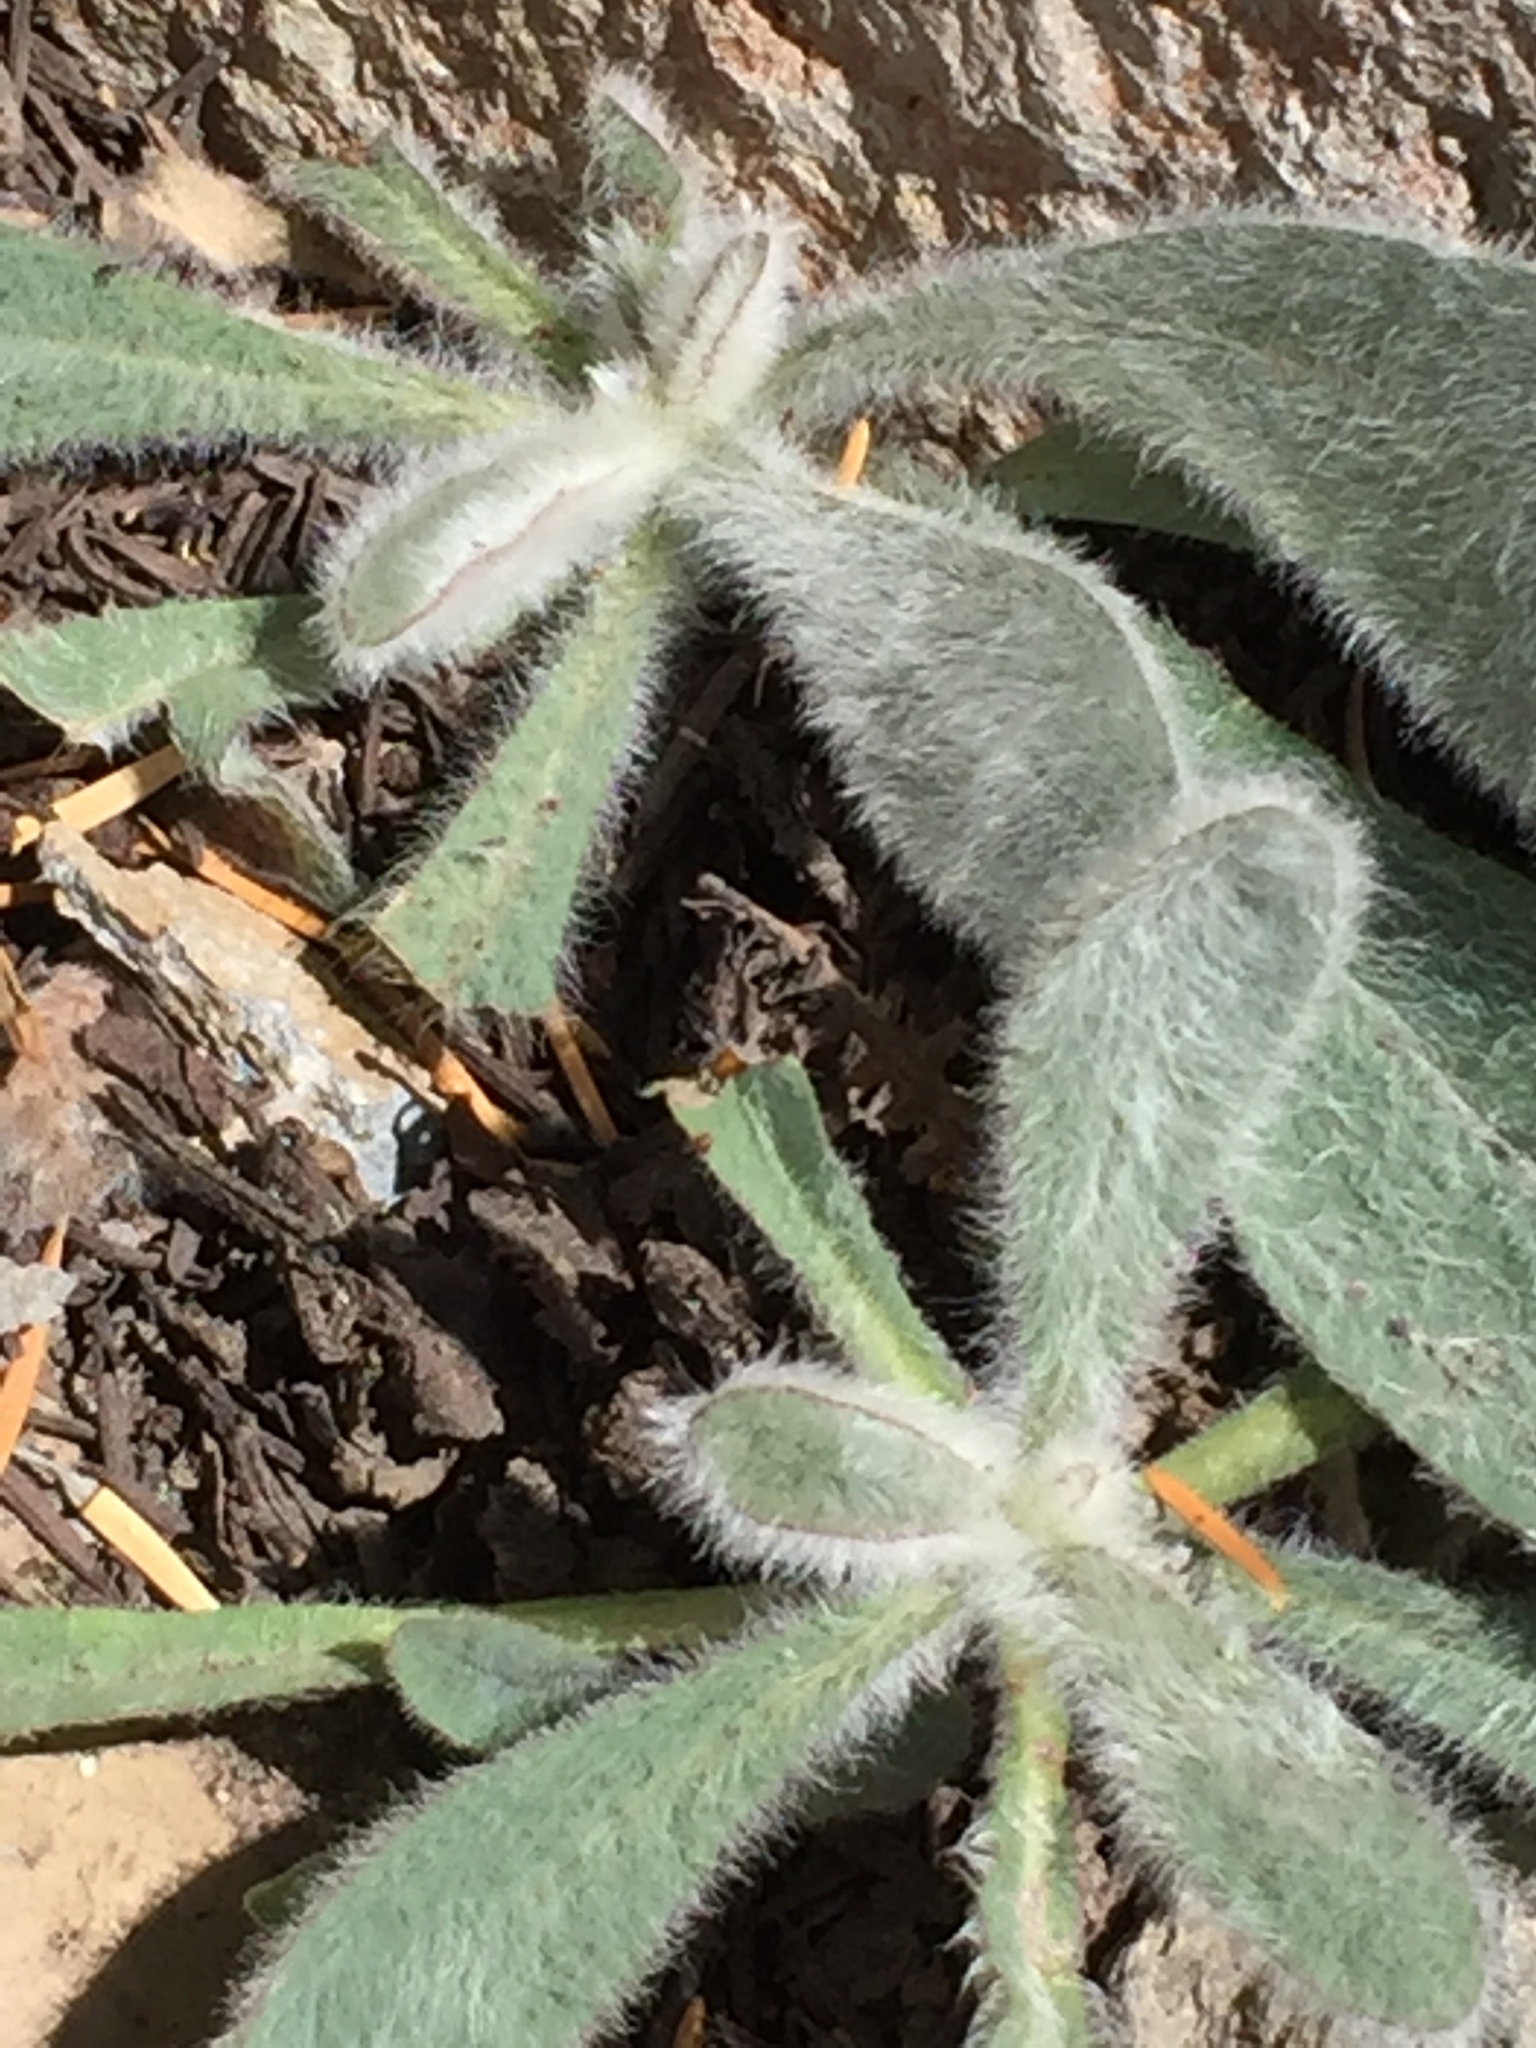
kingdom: Plantae
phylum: Tracheophyta
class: Magnoliopsida
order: Asterales
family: Asteraceae
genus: Hieracium
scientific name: Hieracium horridum
